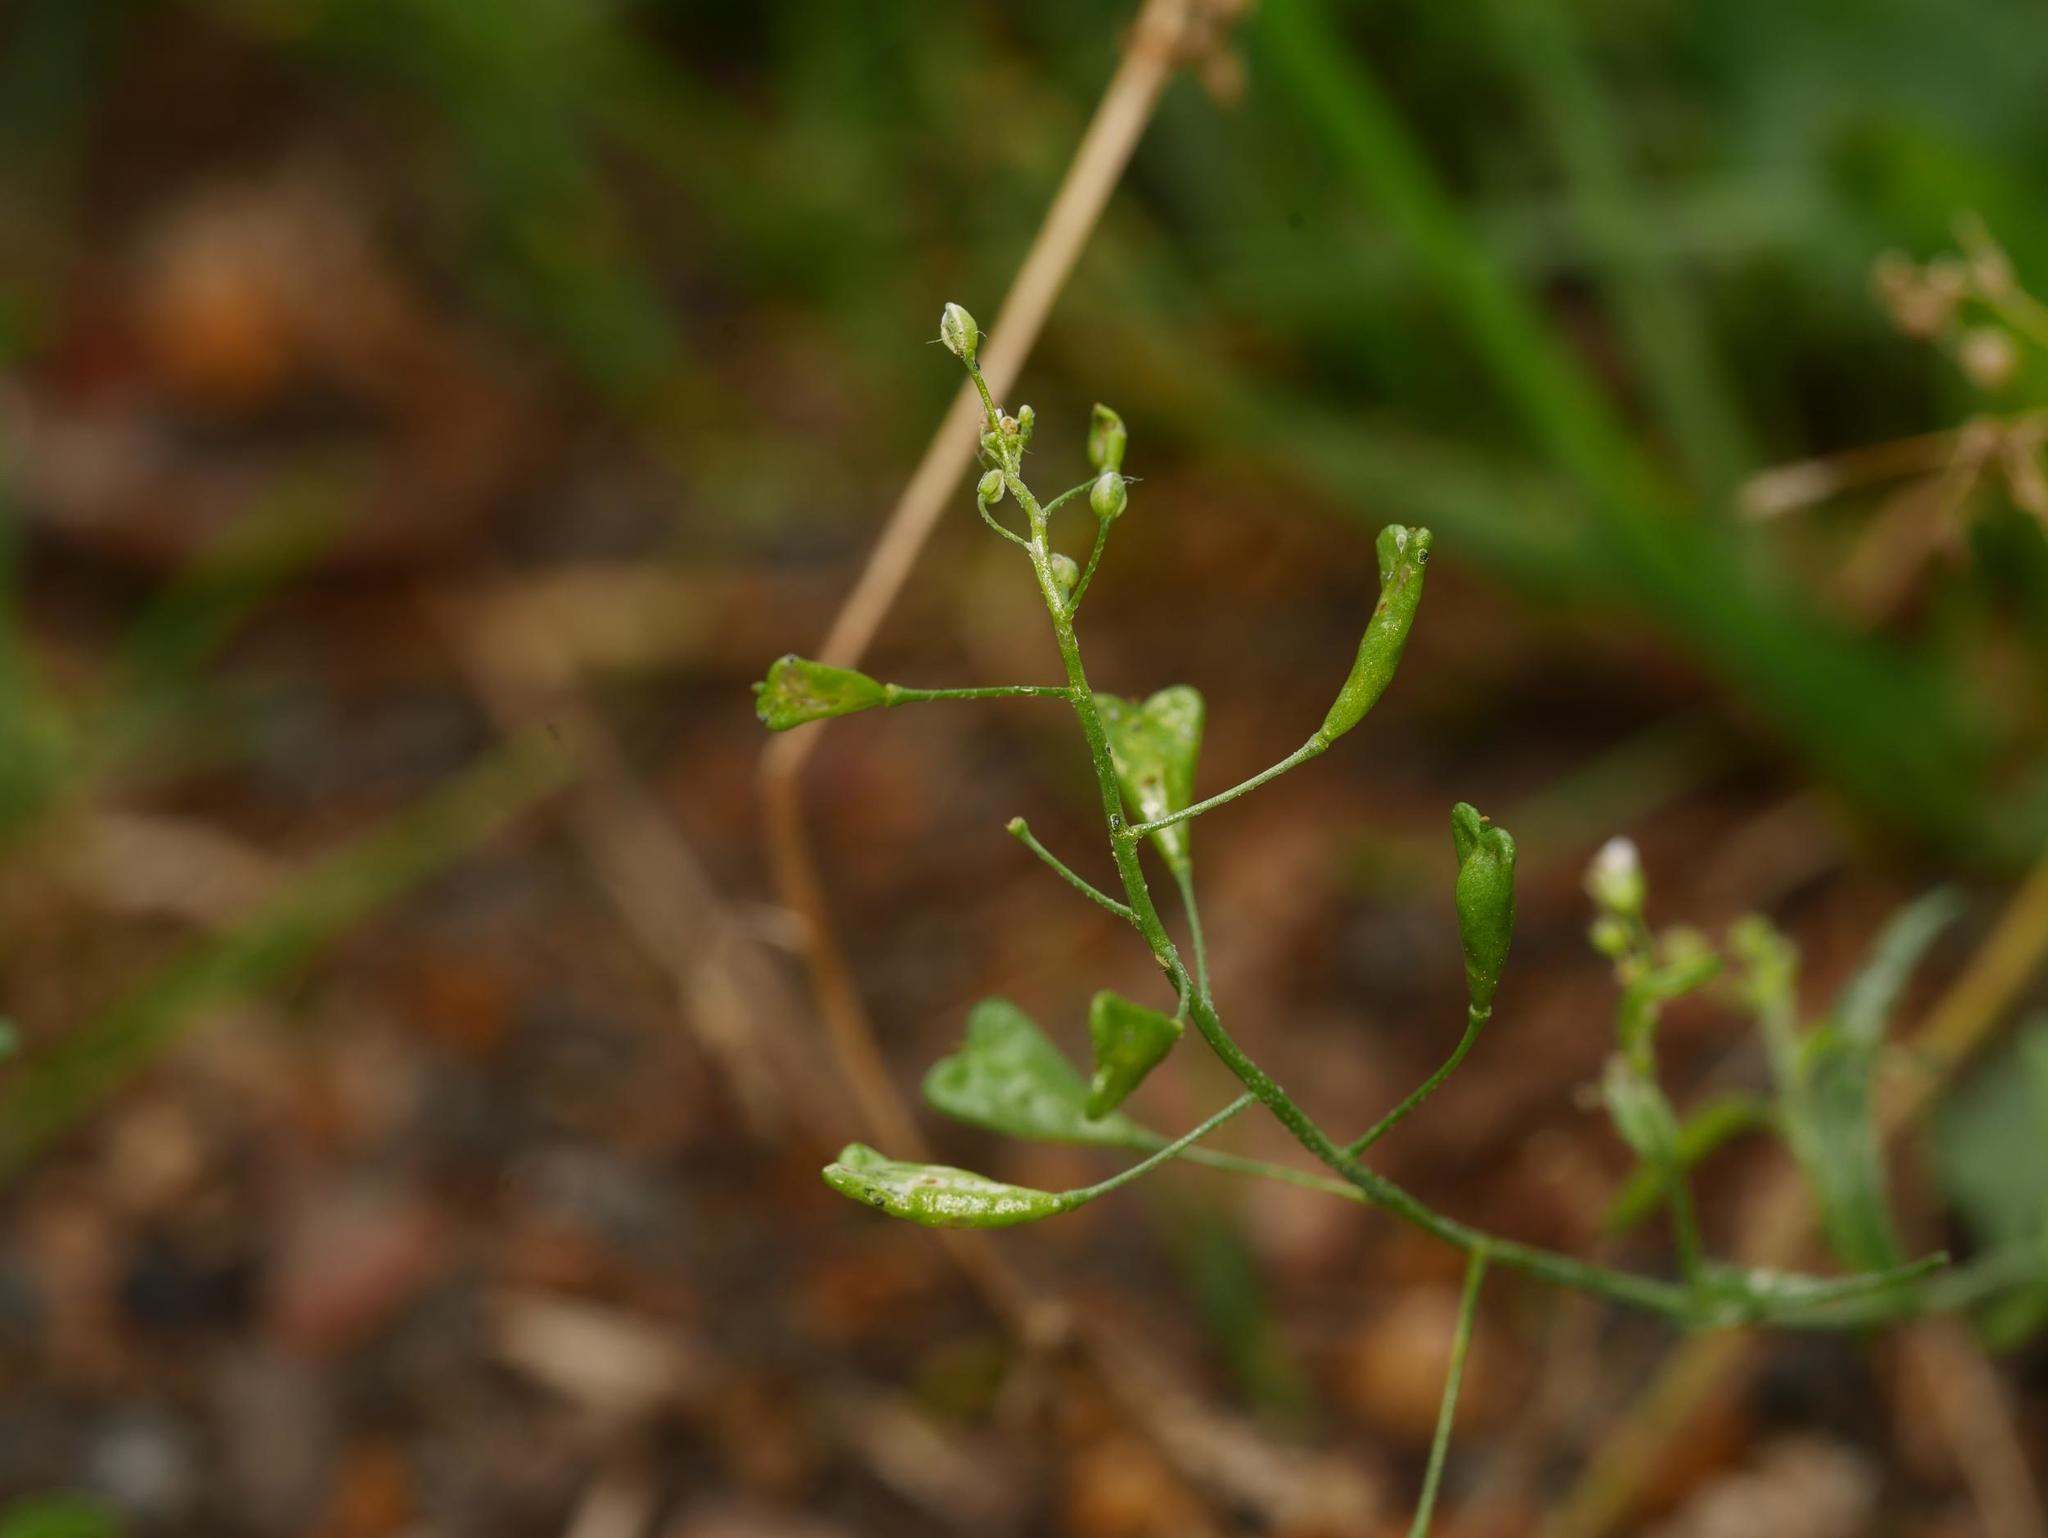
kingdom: Plantae
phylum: Tracheophyta
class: Magnoliopsida
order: Brassicales
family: Brassicaceae
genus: Capsella
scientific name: Capsella bursa-pastoris
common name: Shepherd's purse
